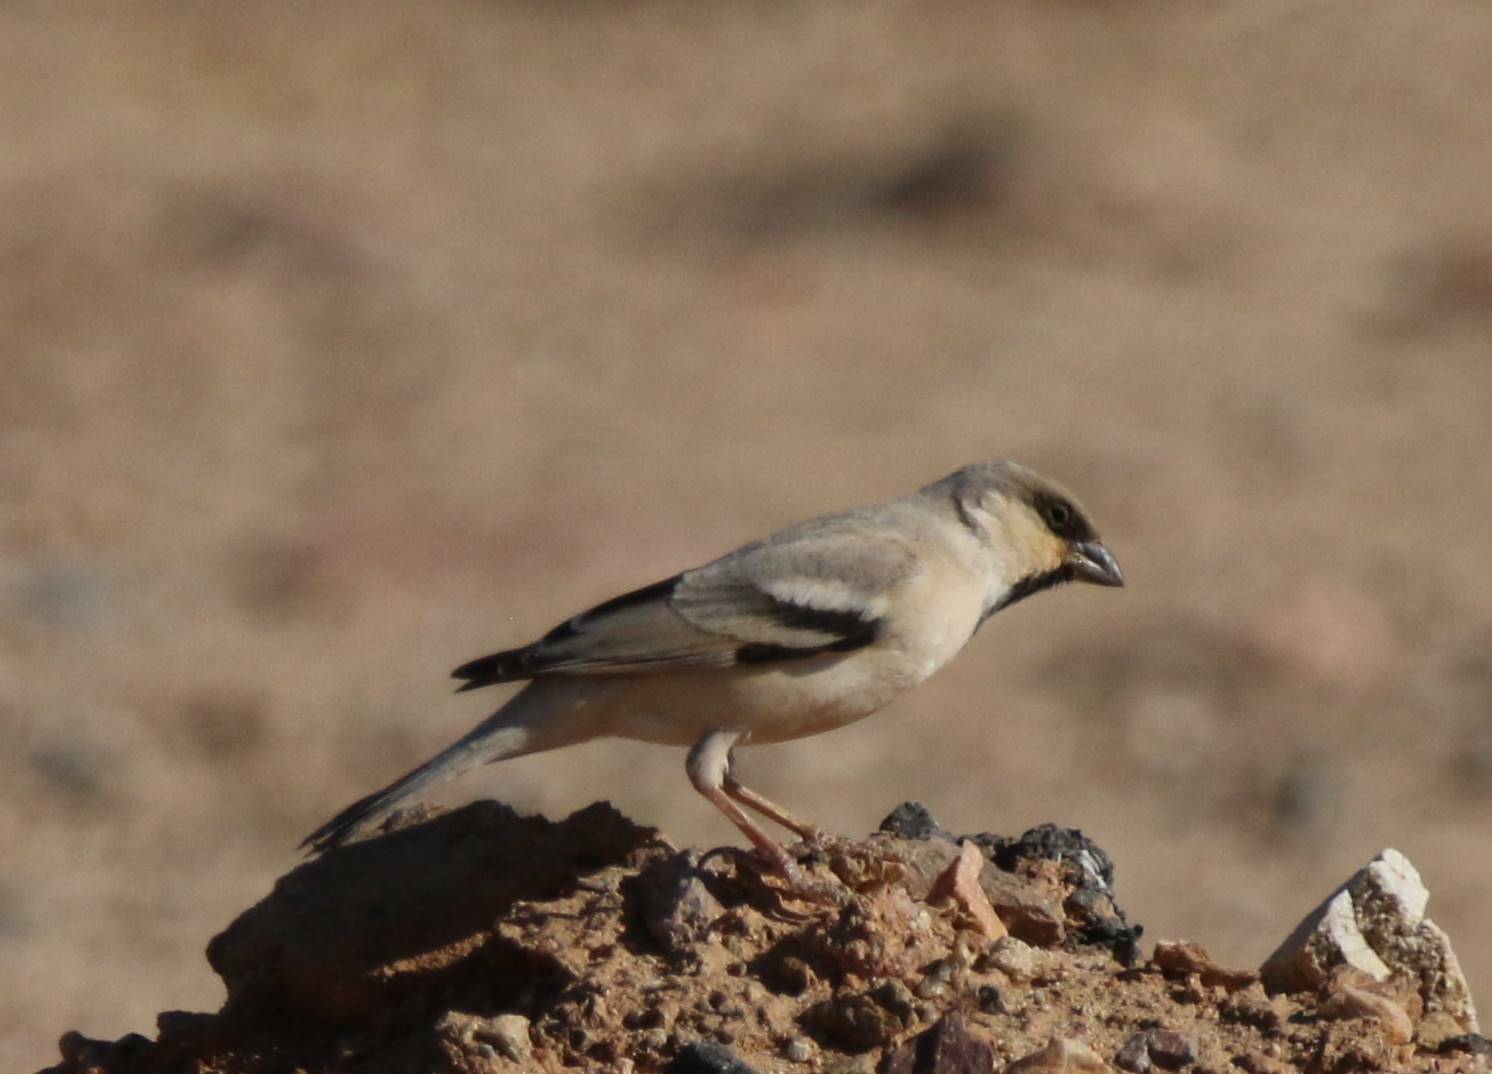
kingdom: Animalia
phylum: Chordata
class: Aves
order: Passeriformes
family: Passeridae
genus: Passer
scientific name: Passer simplex
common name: Desert sparrow
